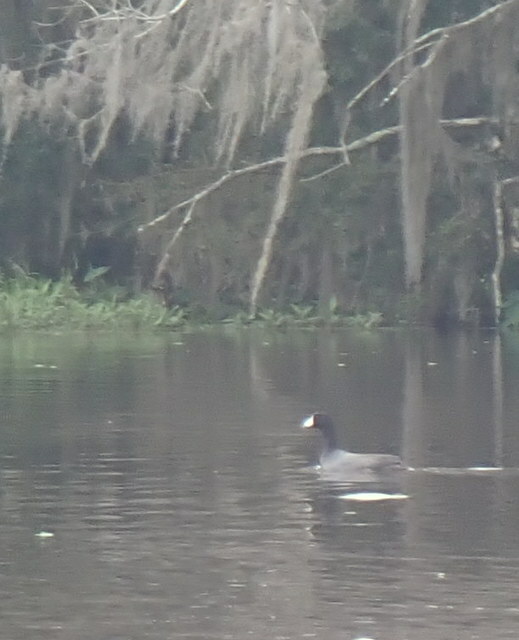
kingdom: Animalia
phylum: Chordata
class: Aves
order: Gruiformes
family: Rallidae
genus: Fulica
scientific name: Fulica americana
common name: American coot
